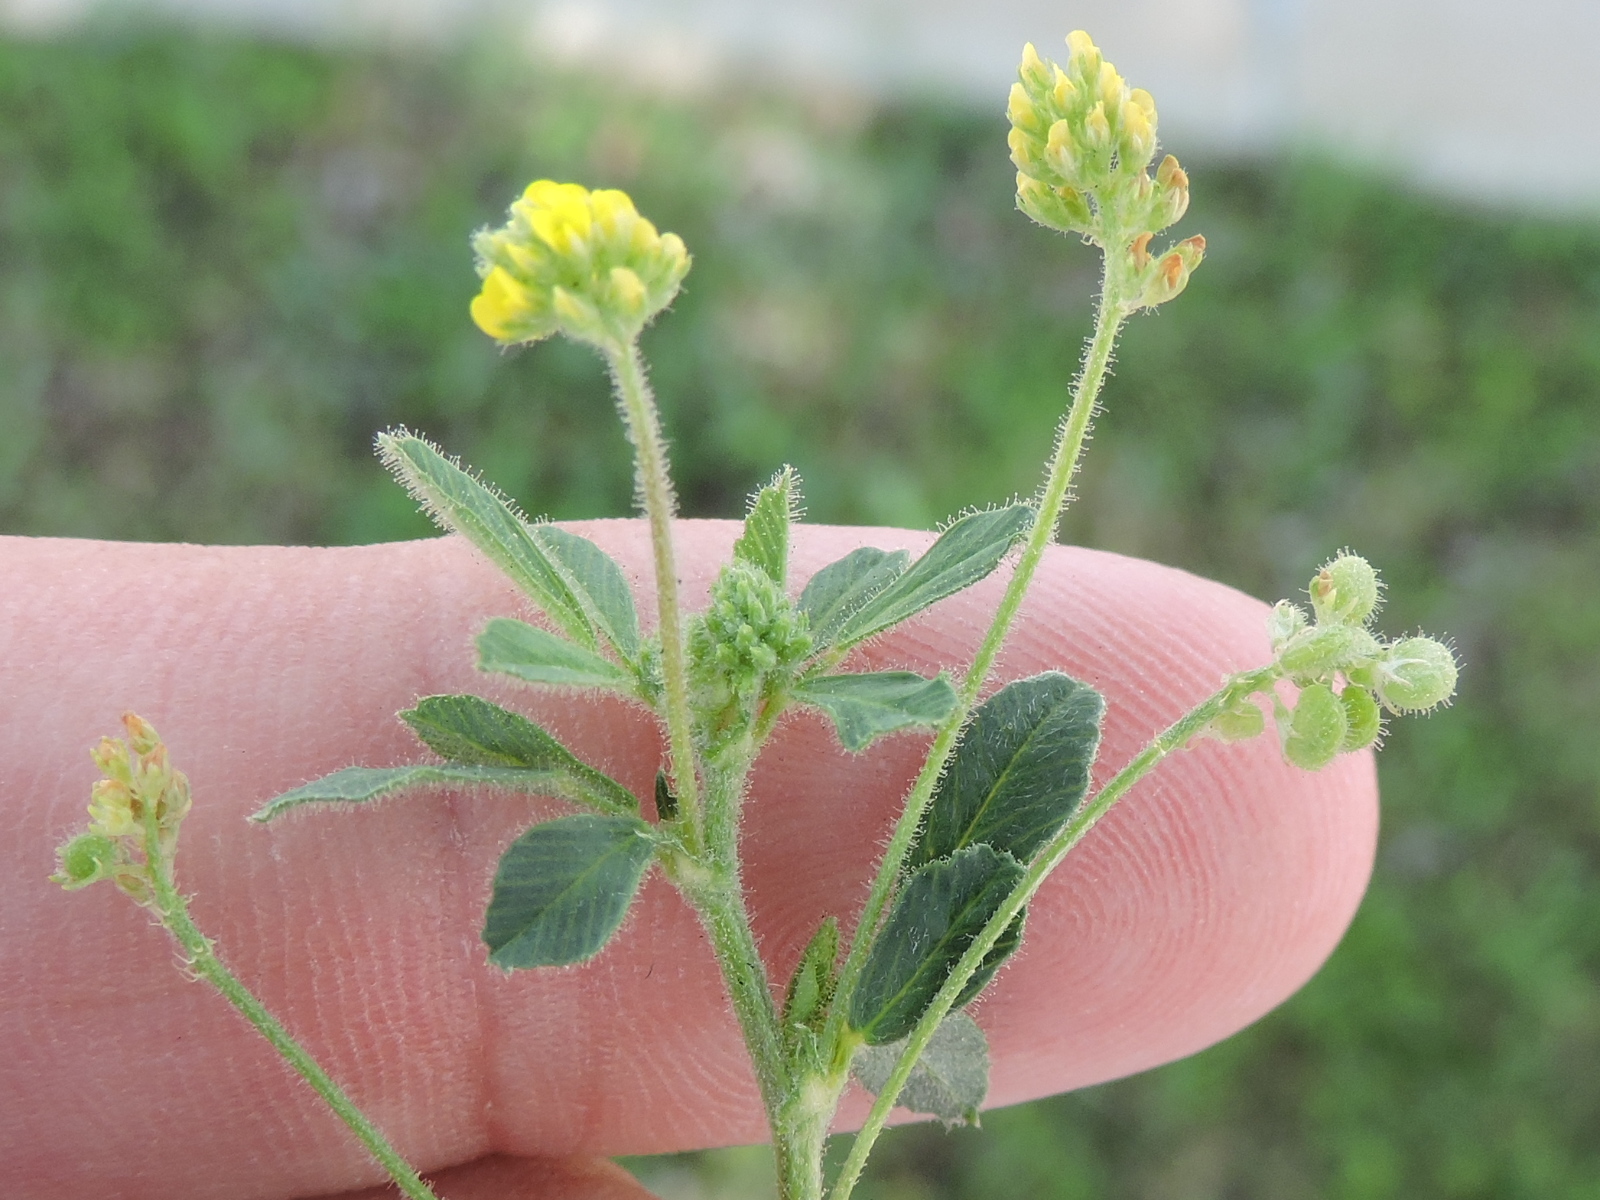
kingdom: Plantae
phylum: Tracheophyta
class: Magnoliopsida
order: Fabales
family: Fabaceae
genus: Medicago
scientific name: Medicago lupulina
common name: Black medick
